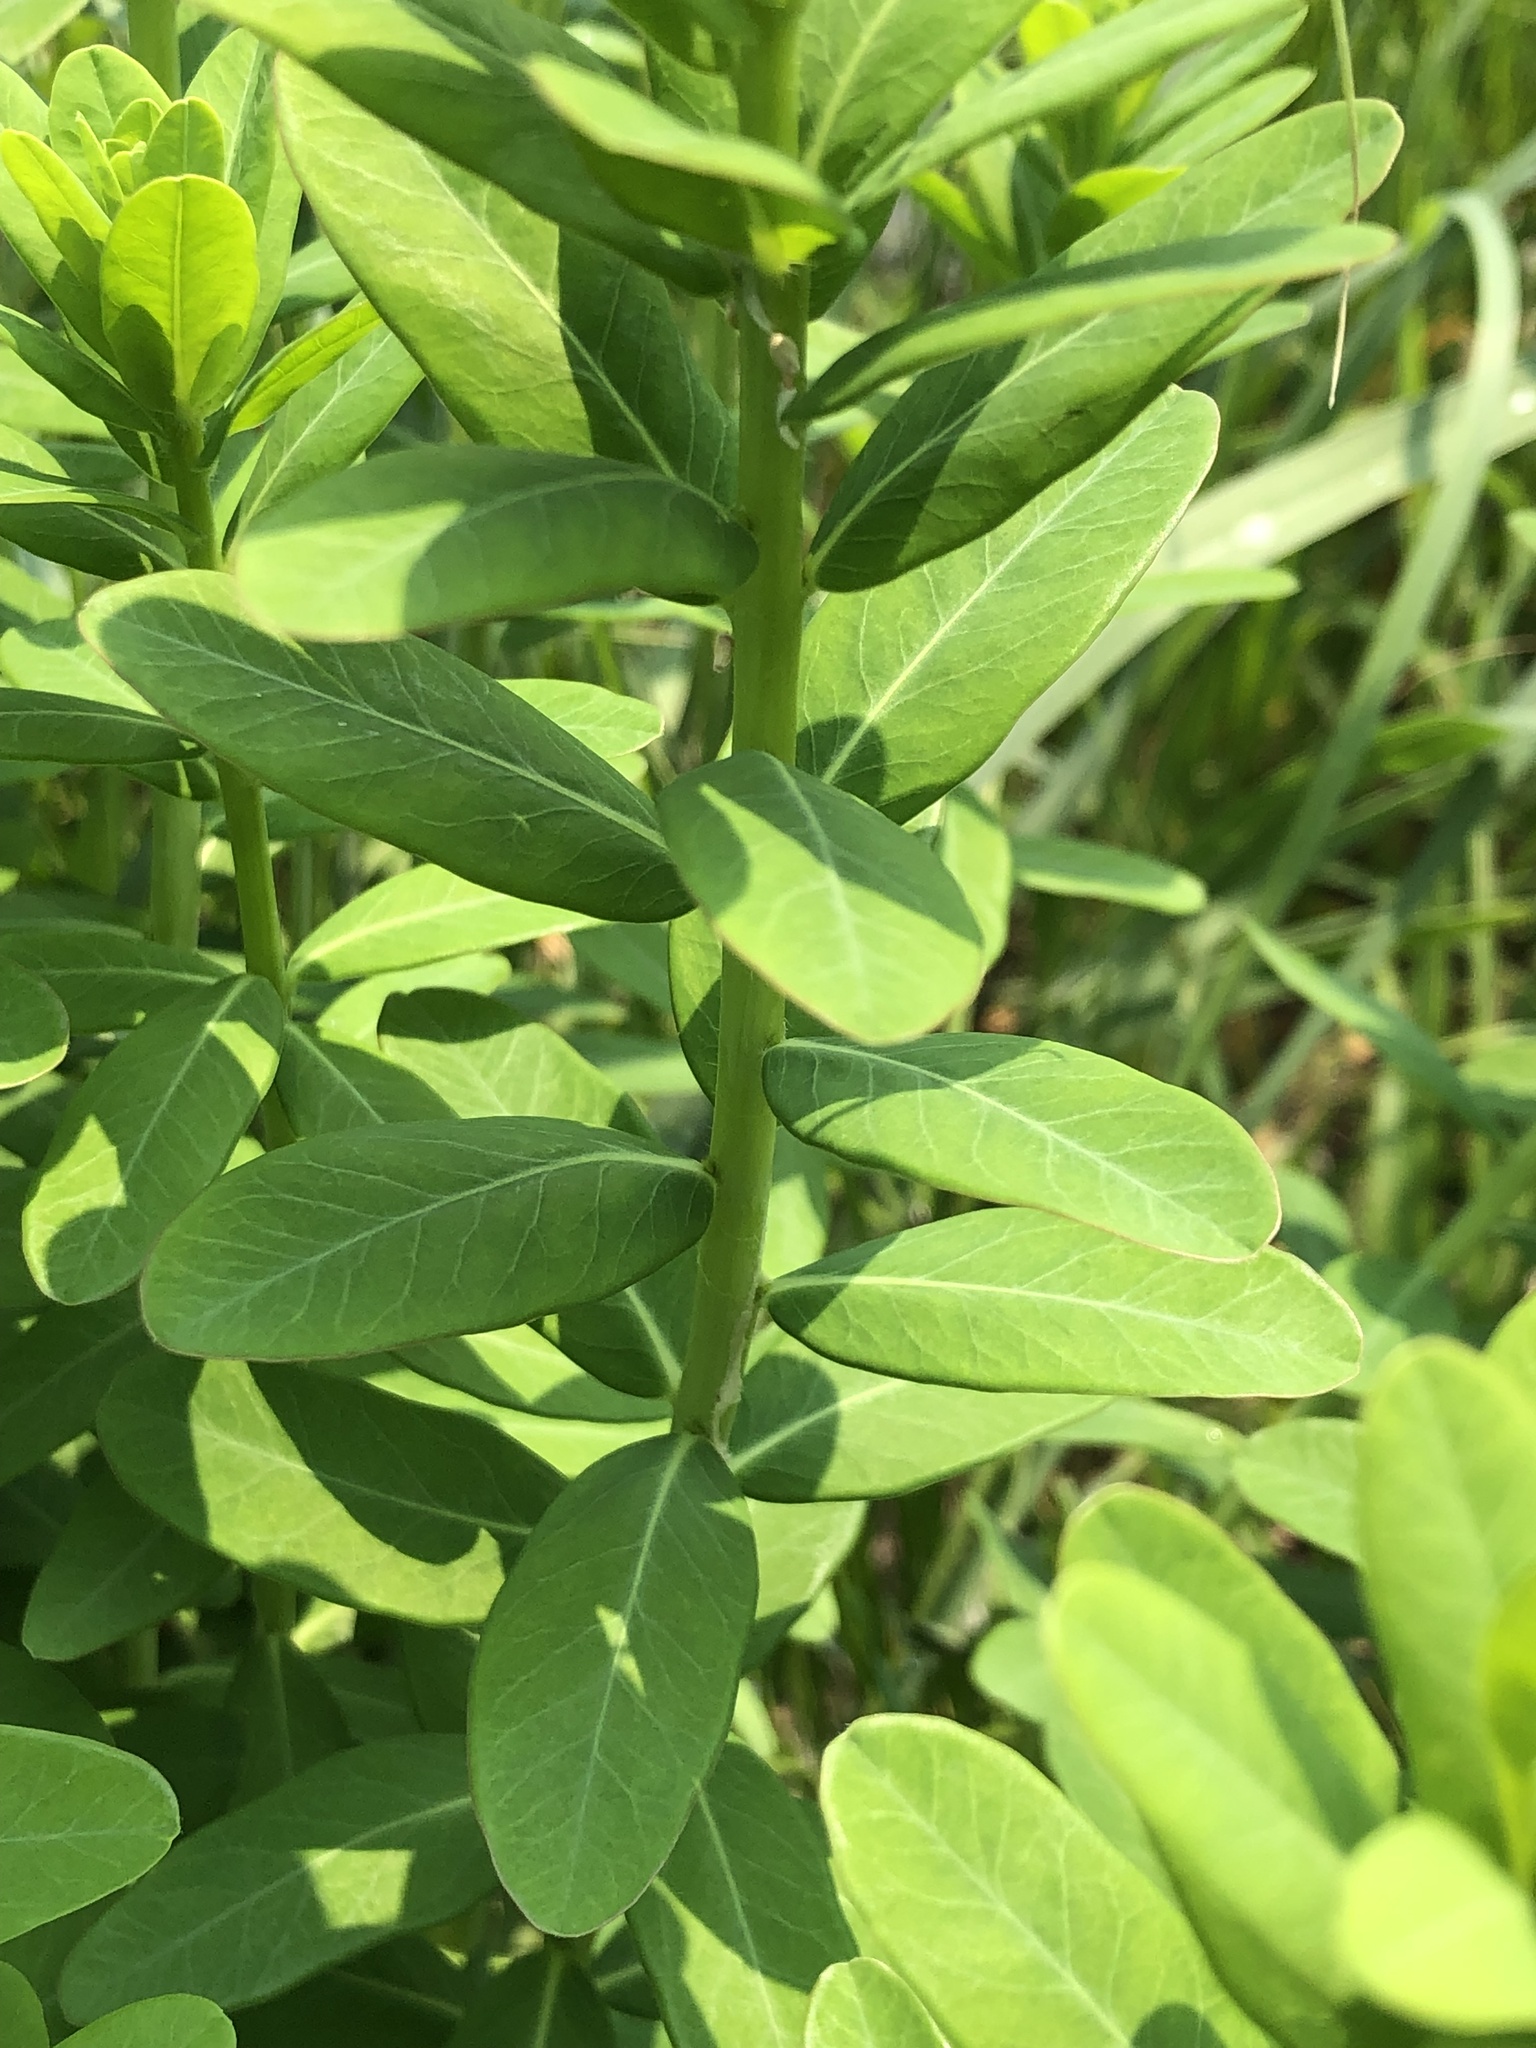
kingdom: Plantae
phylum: Tracheophyta
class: Magnoliopsida
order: Malpighiales
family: Euphorbiaceae
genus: Euphorbia
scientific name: Euphorbia corollata
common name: Flowering spurge
